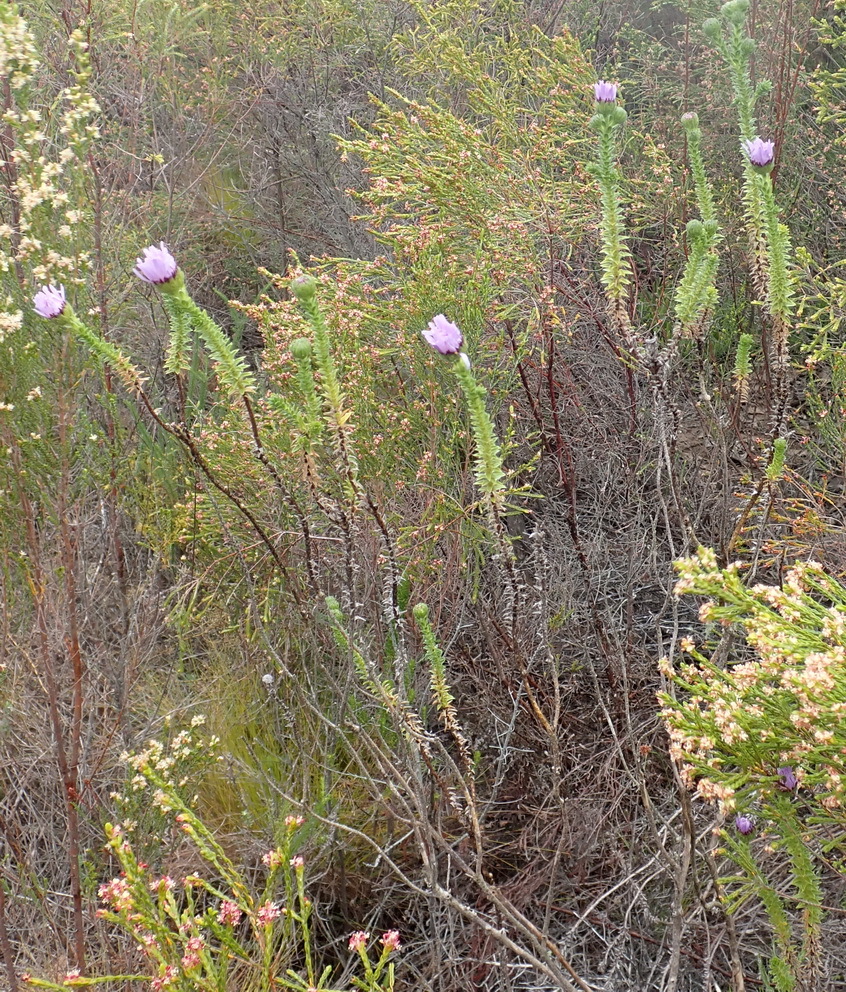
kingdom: Plantae
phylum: Tracheophyta
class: Magnoliopsida
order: Asterales
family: Asteraceae
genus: Felicia
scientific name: Felicia echinata
